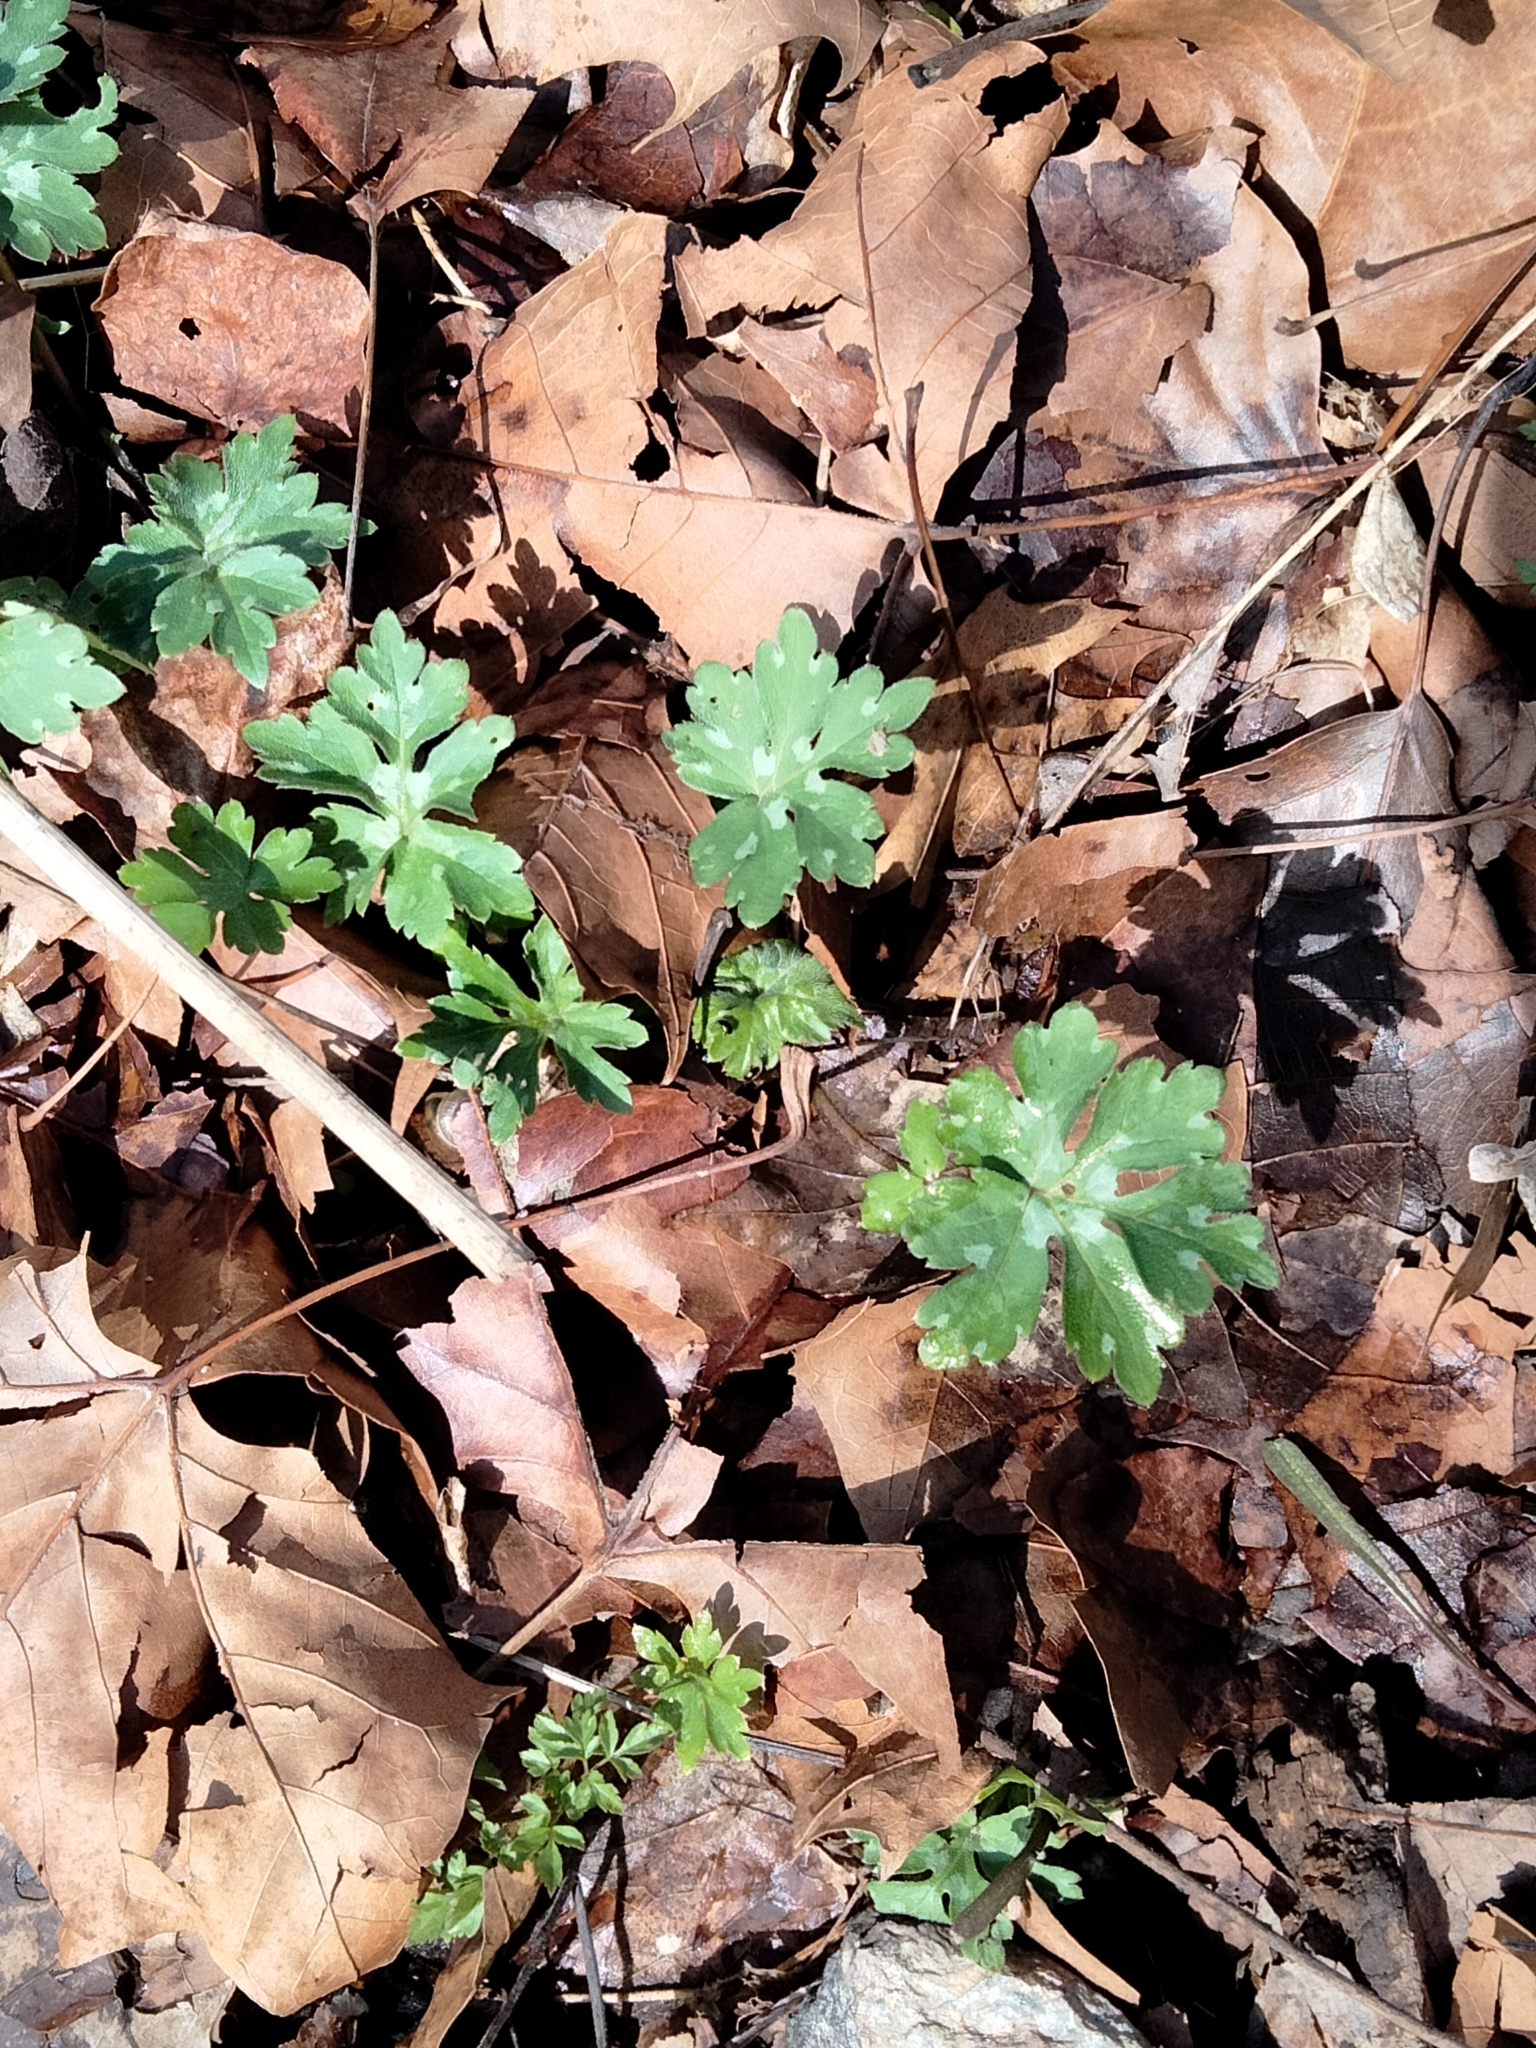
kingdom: Plantae
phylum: Tracheophyta
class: Magnoliopsida
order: Boraginales
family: Hydrophyllaceae
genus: Hydrophyllum
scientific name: Hydrophyllum canadense
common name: Canada waterleaf
